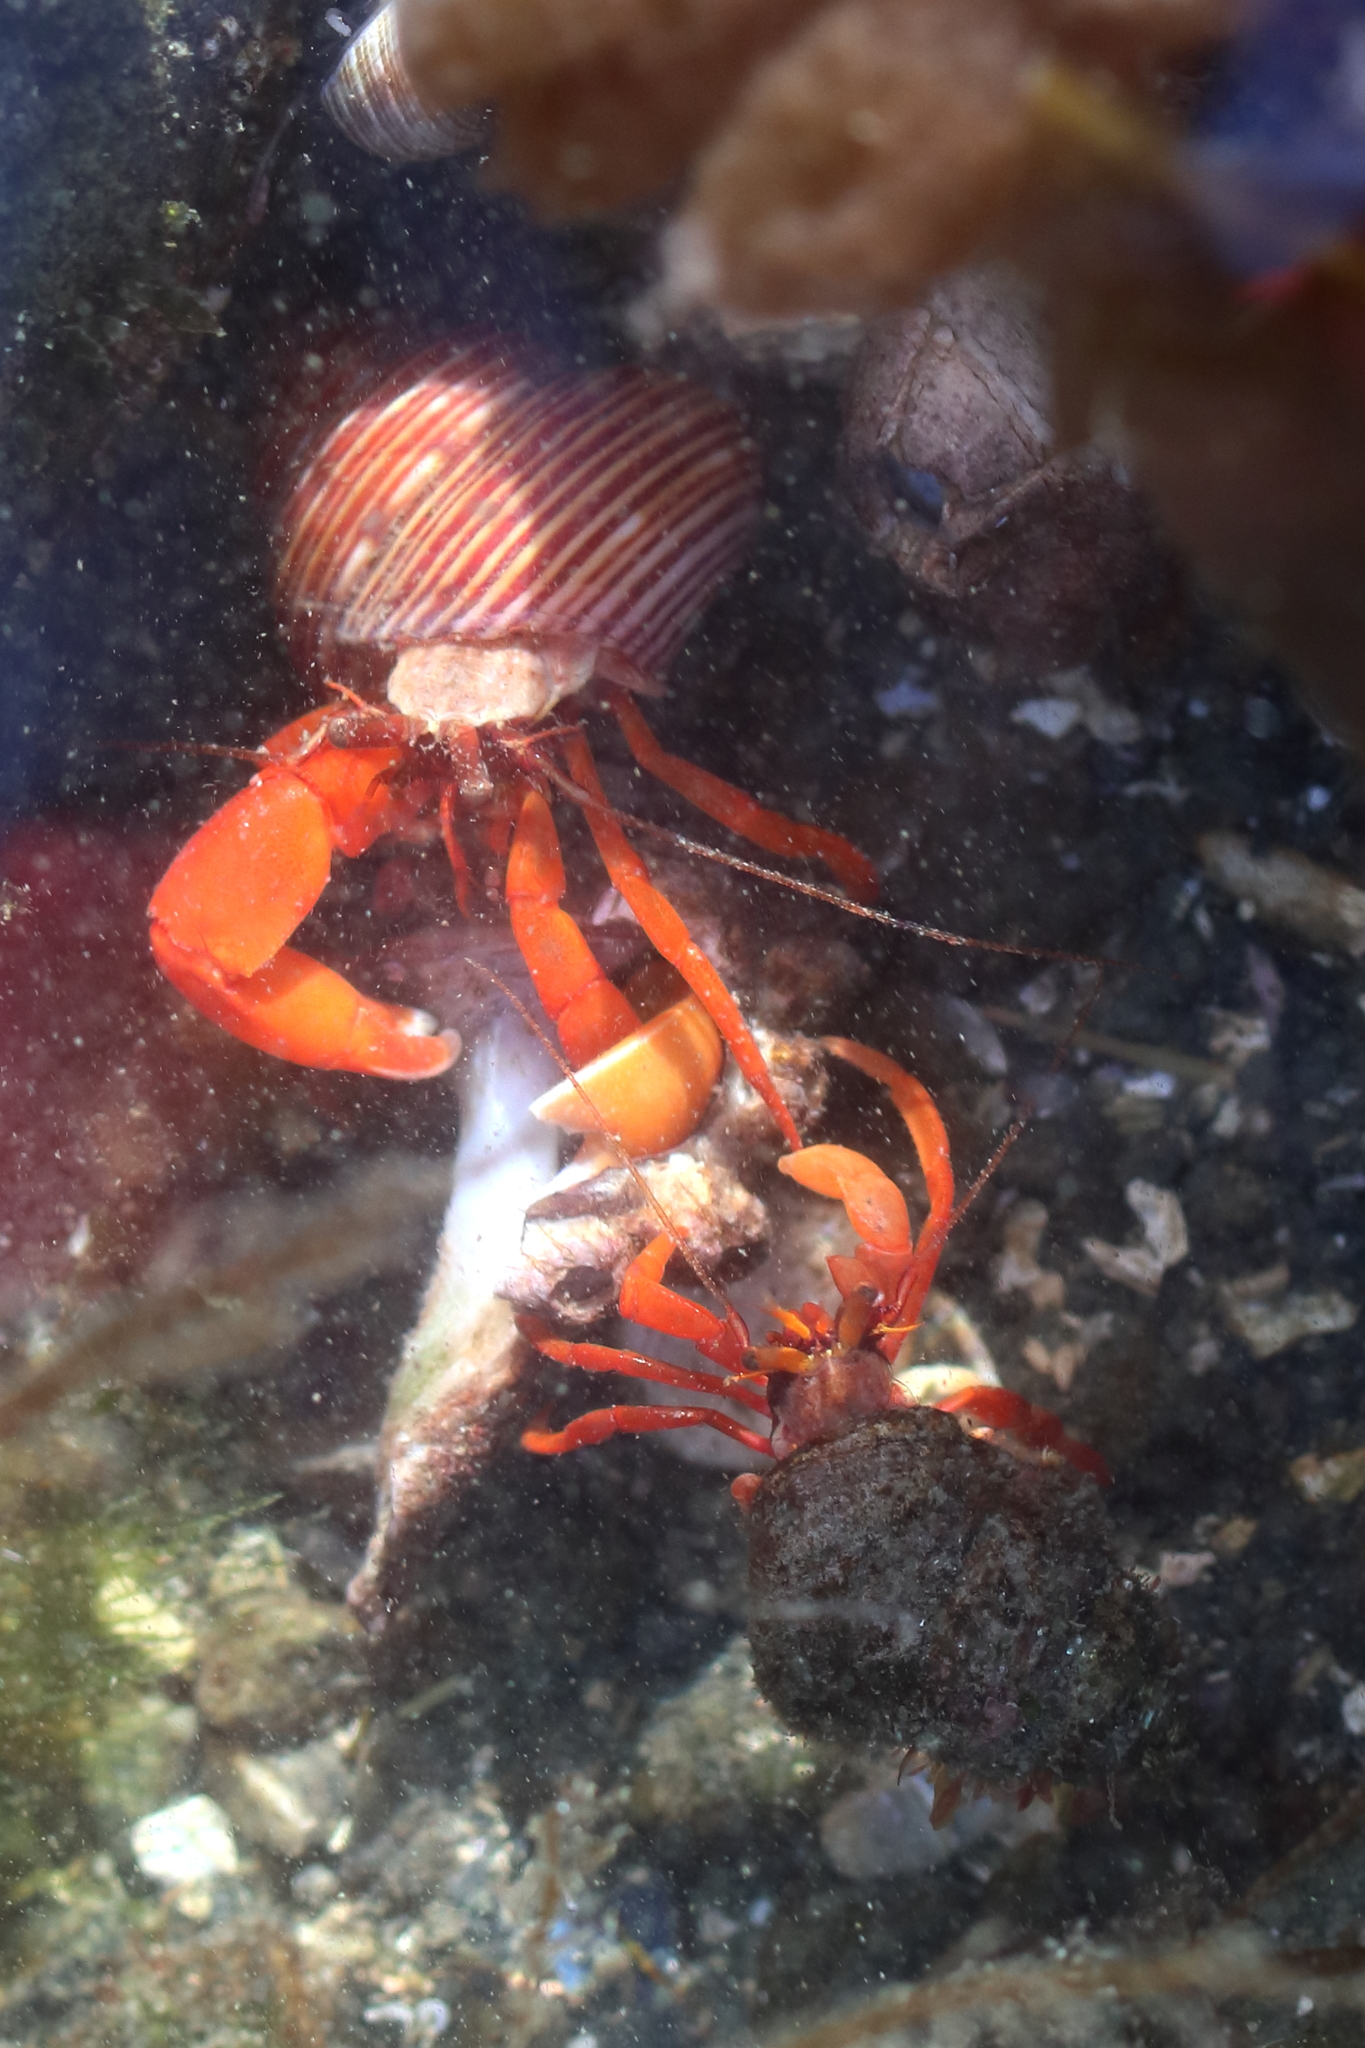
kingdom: Animalia
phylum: Arthropoda
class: Malacostraca
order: Decapoda
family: Paguridae
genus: Elassochirus
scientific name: Elassochirus gilli
